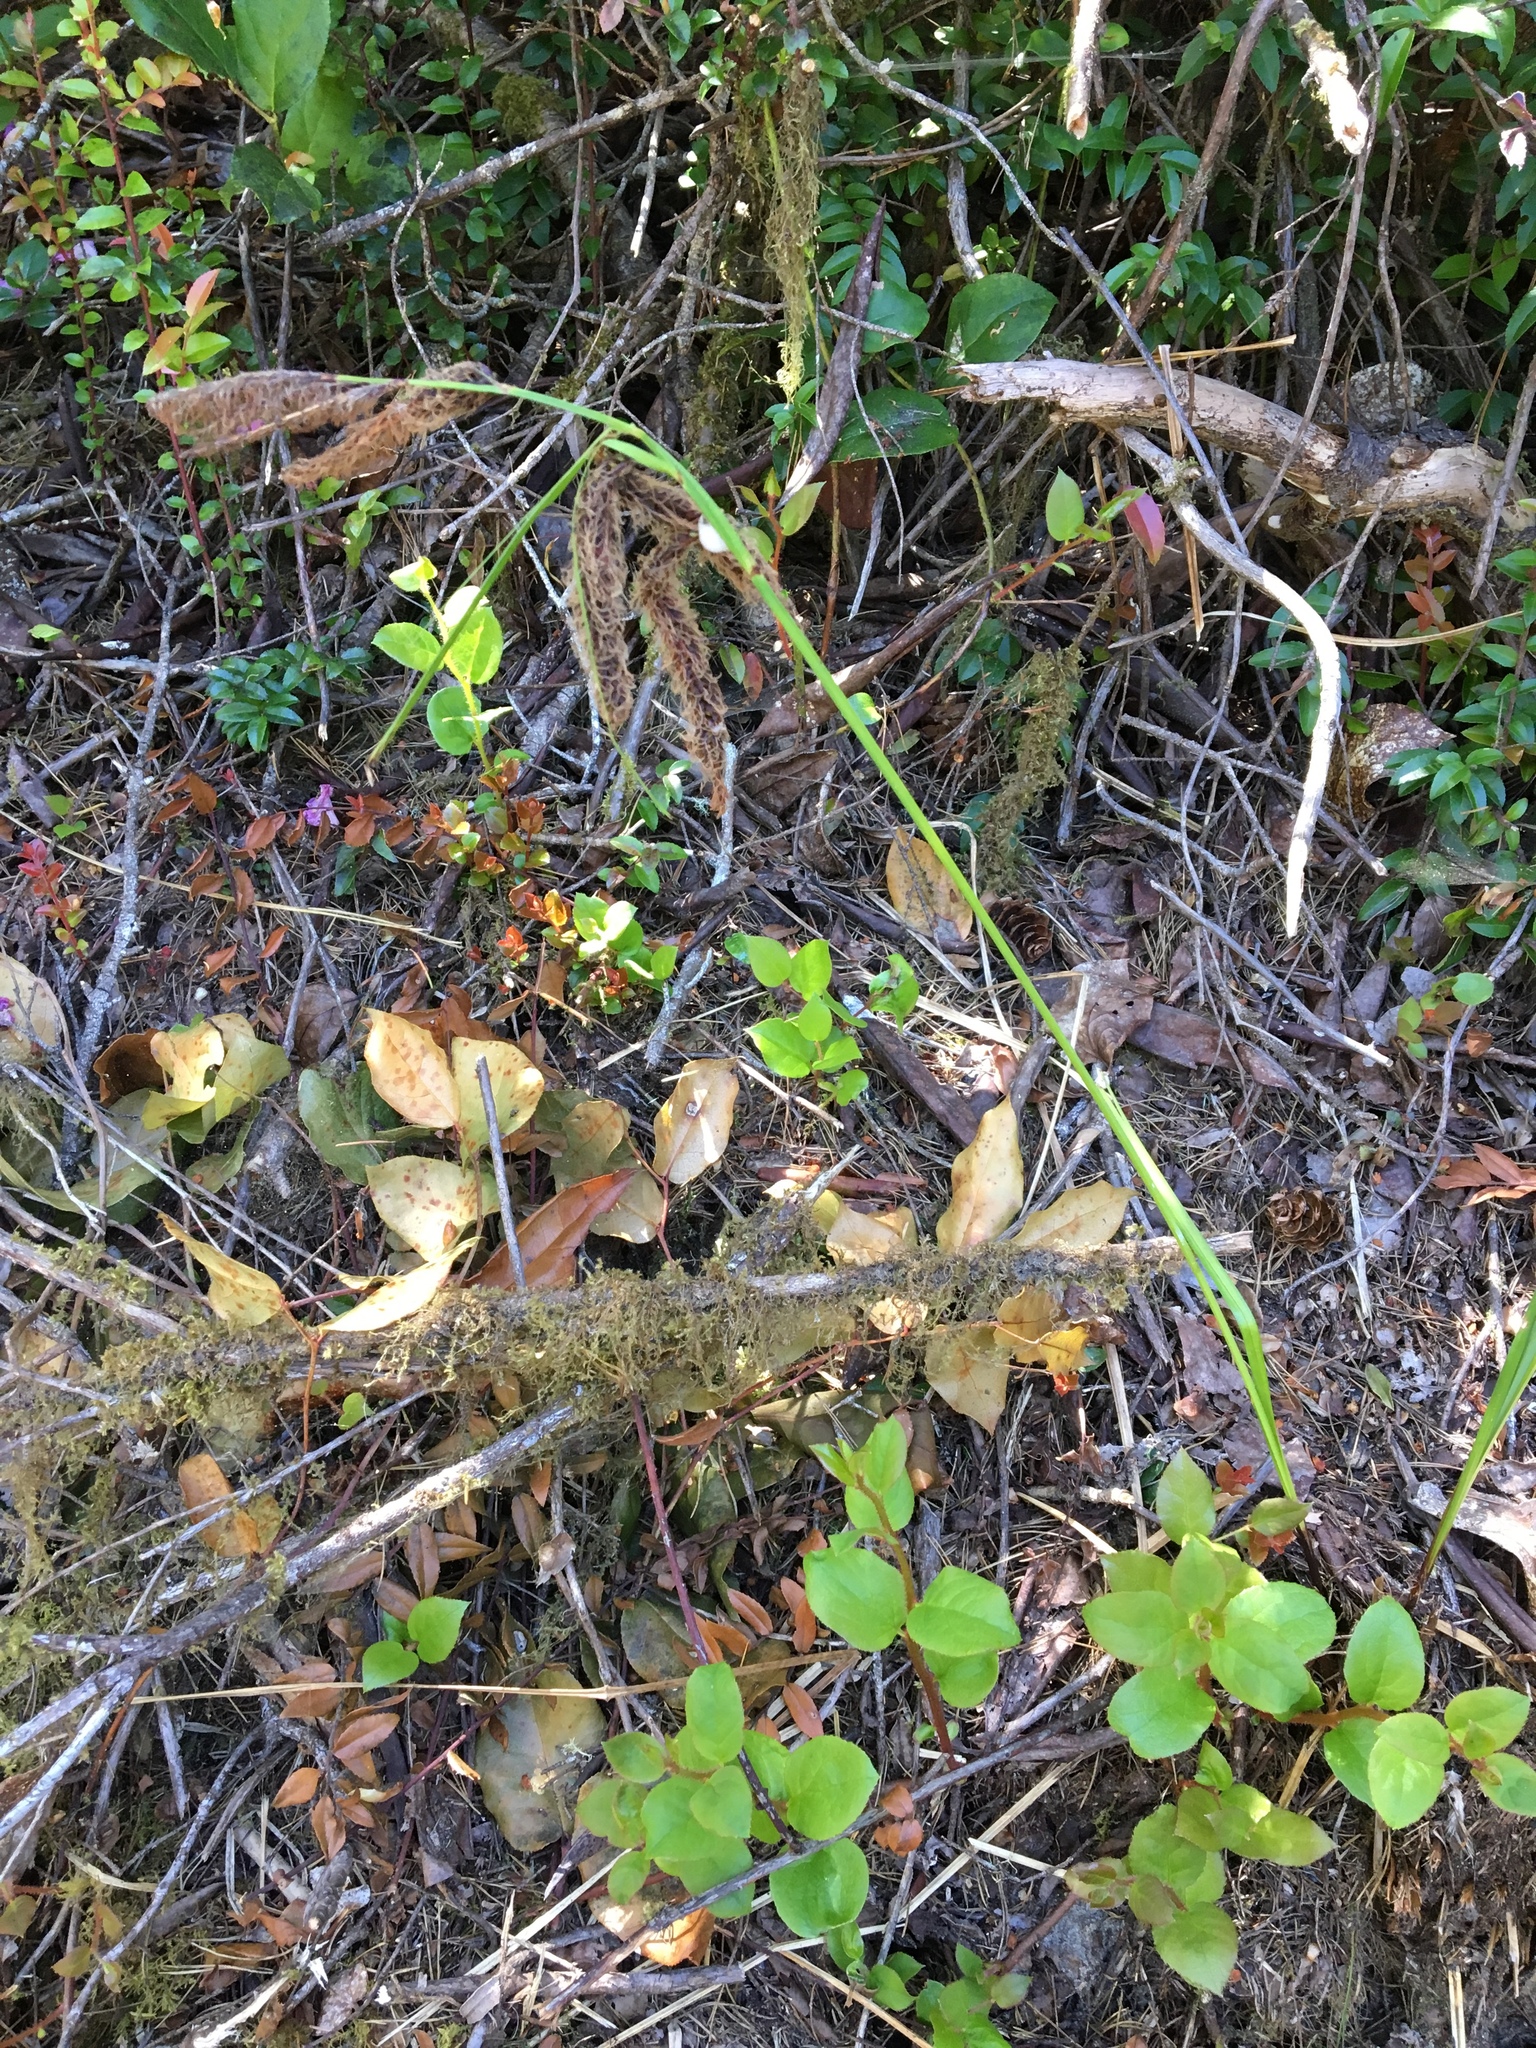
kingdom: Plantae
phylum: Tracheophyta
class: Liliopsida
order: Poales
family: Cyperaceae
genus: Carex
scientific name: Carex obnupta
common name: Slough sedge
